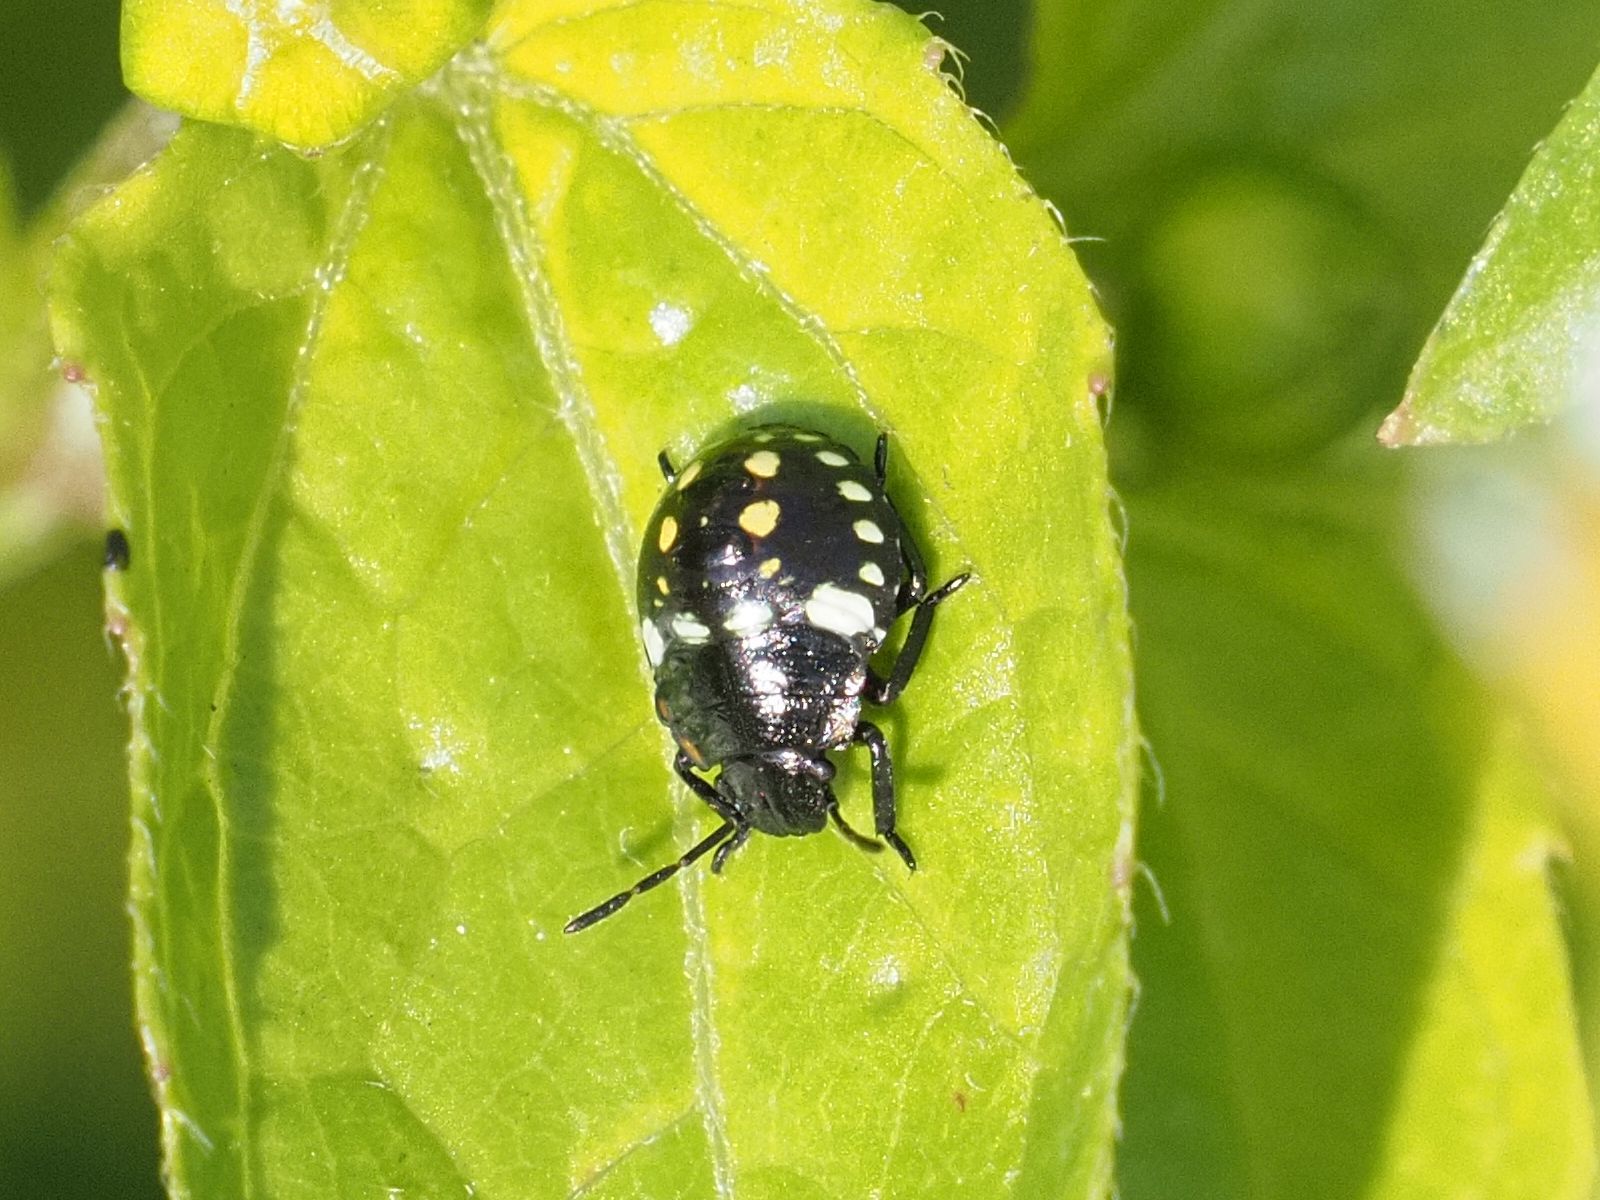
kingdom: Animalia
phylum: Arthropoda
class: Insecta
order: Hemiptera
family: Pentatomidae
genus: Nezara
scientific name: Nezara viridula
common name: Southern green stink bug
